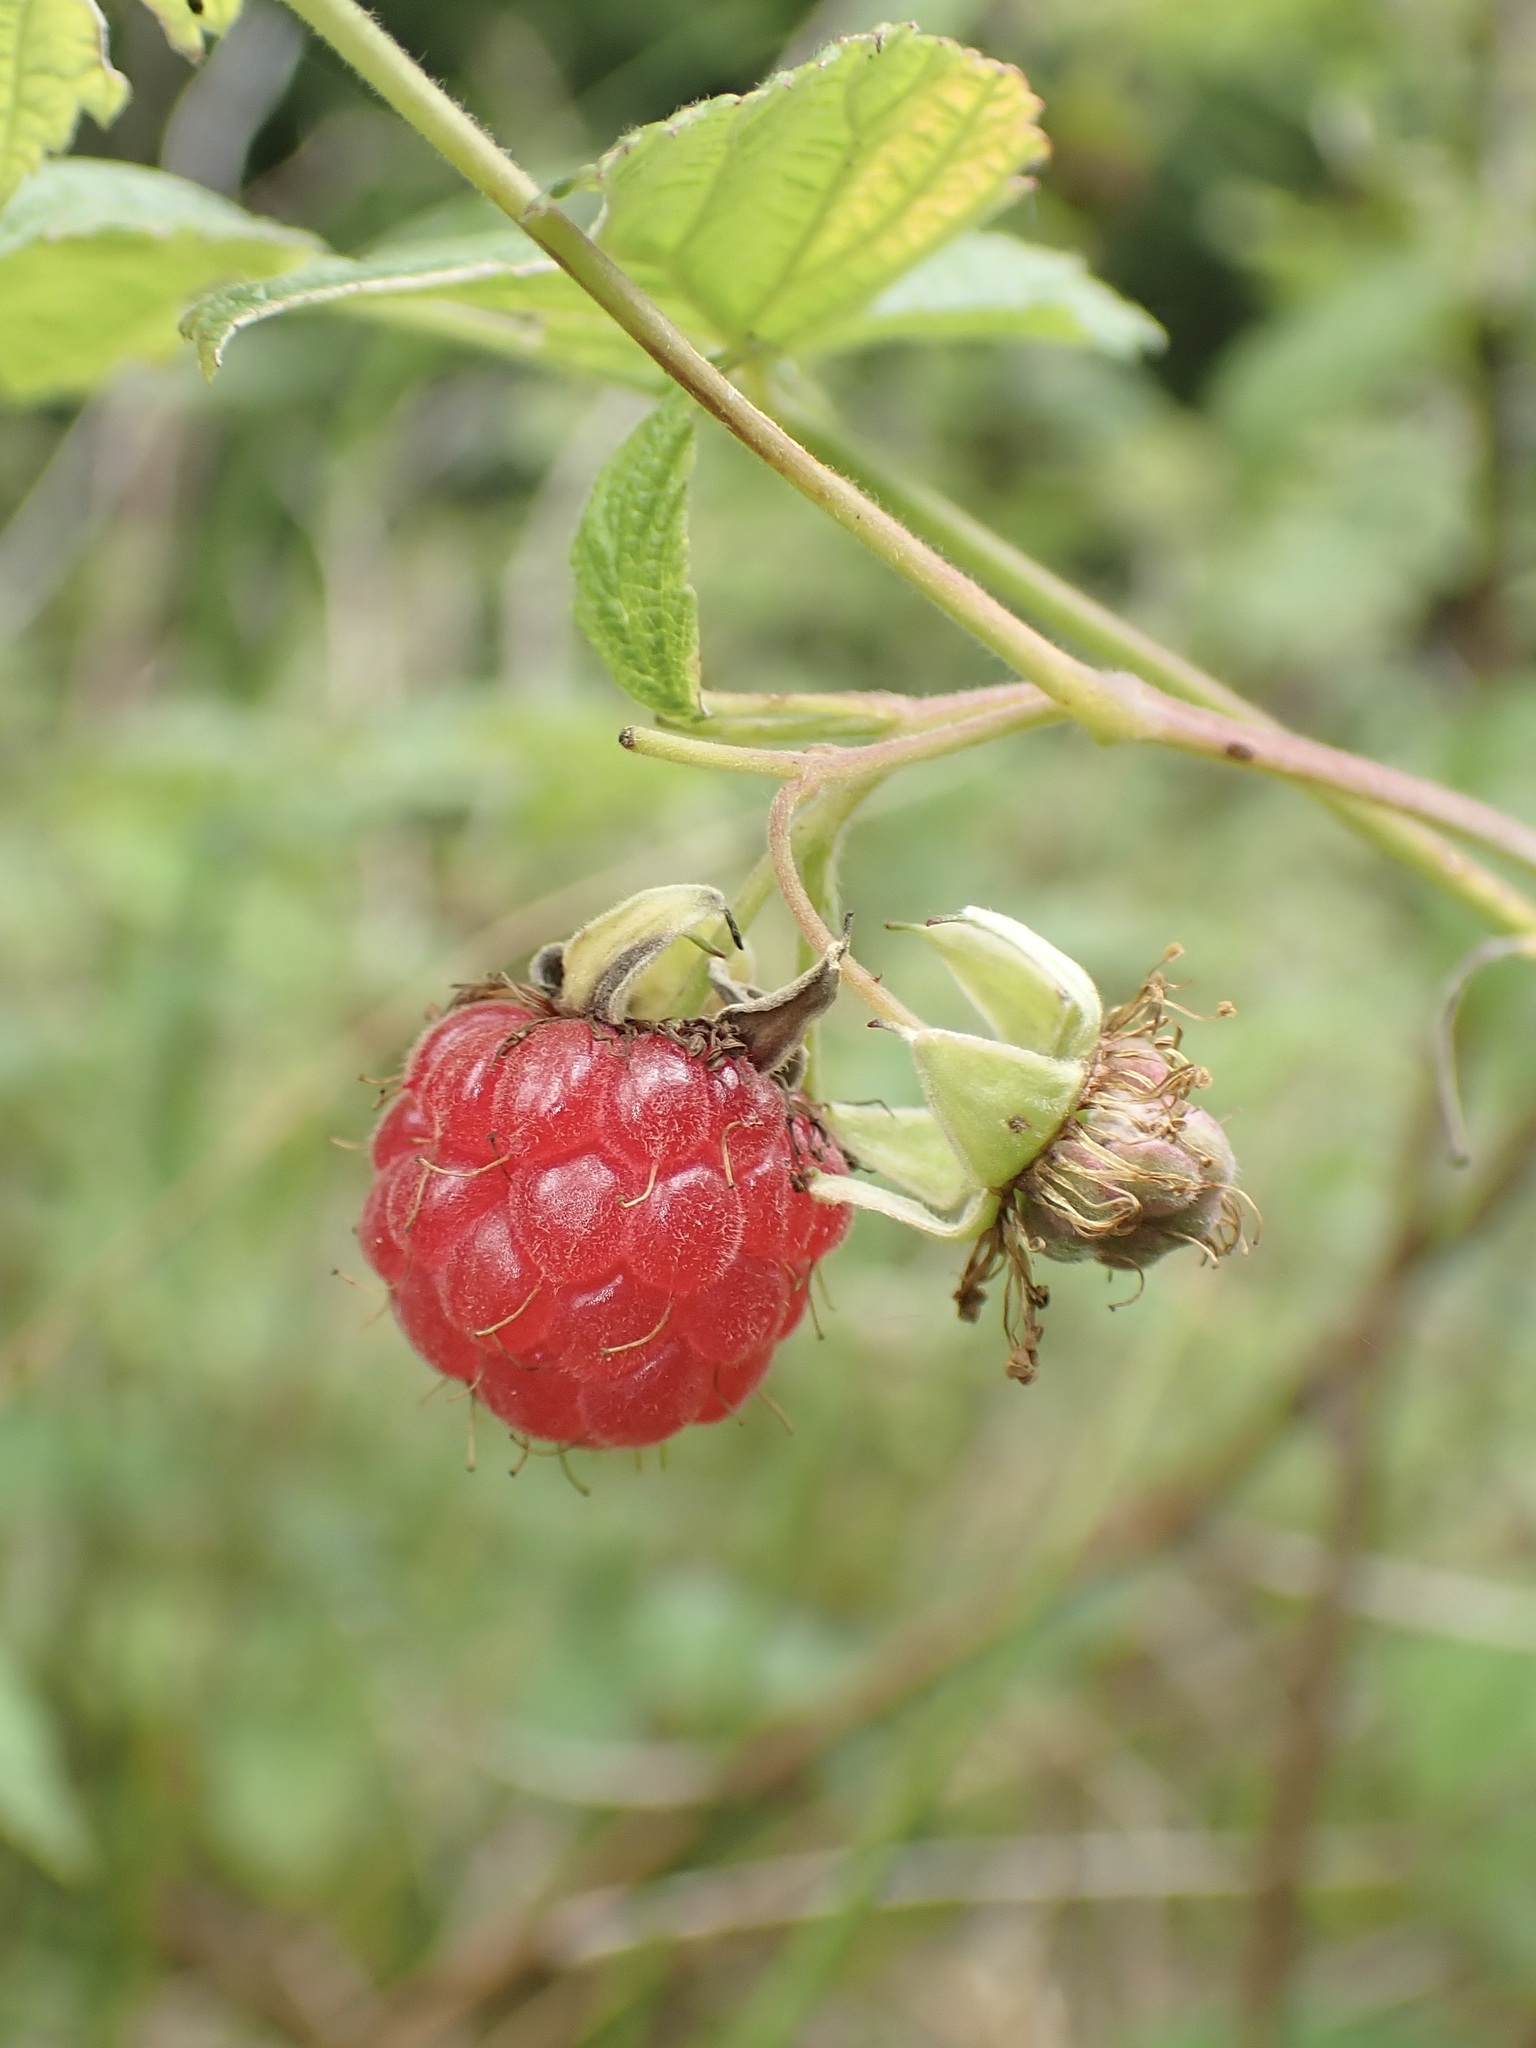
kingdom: Plantae
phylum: Tracheophyta
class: Magnoliopsida
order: Rosales
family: Rosaceae
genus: Rubus
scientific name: Rubus idaeus
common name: Raspberry
